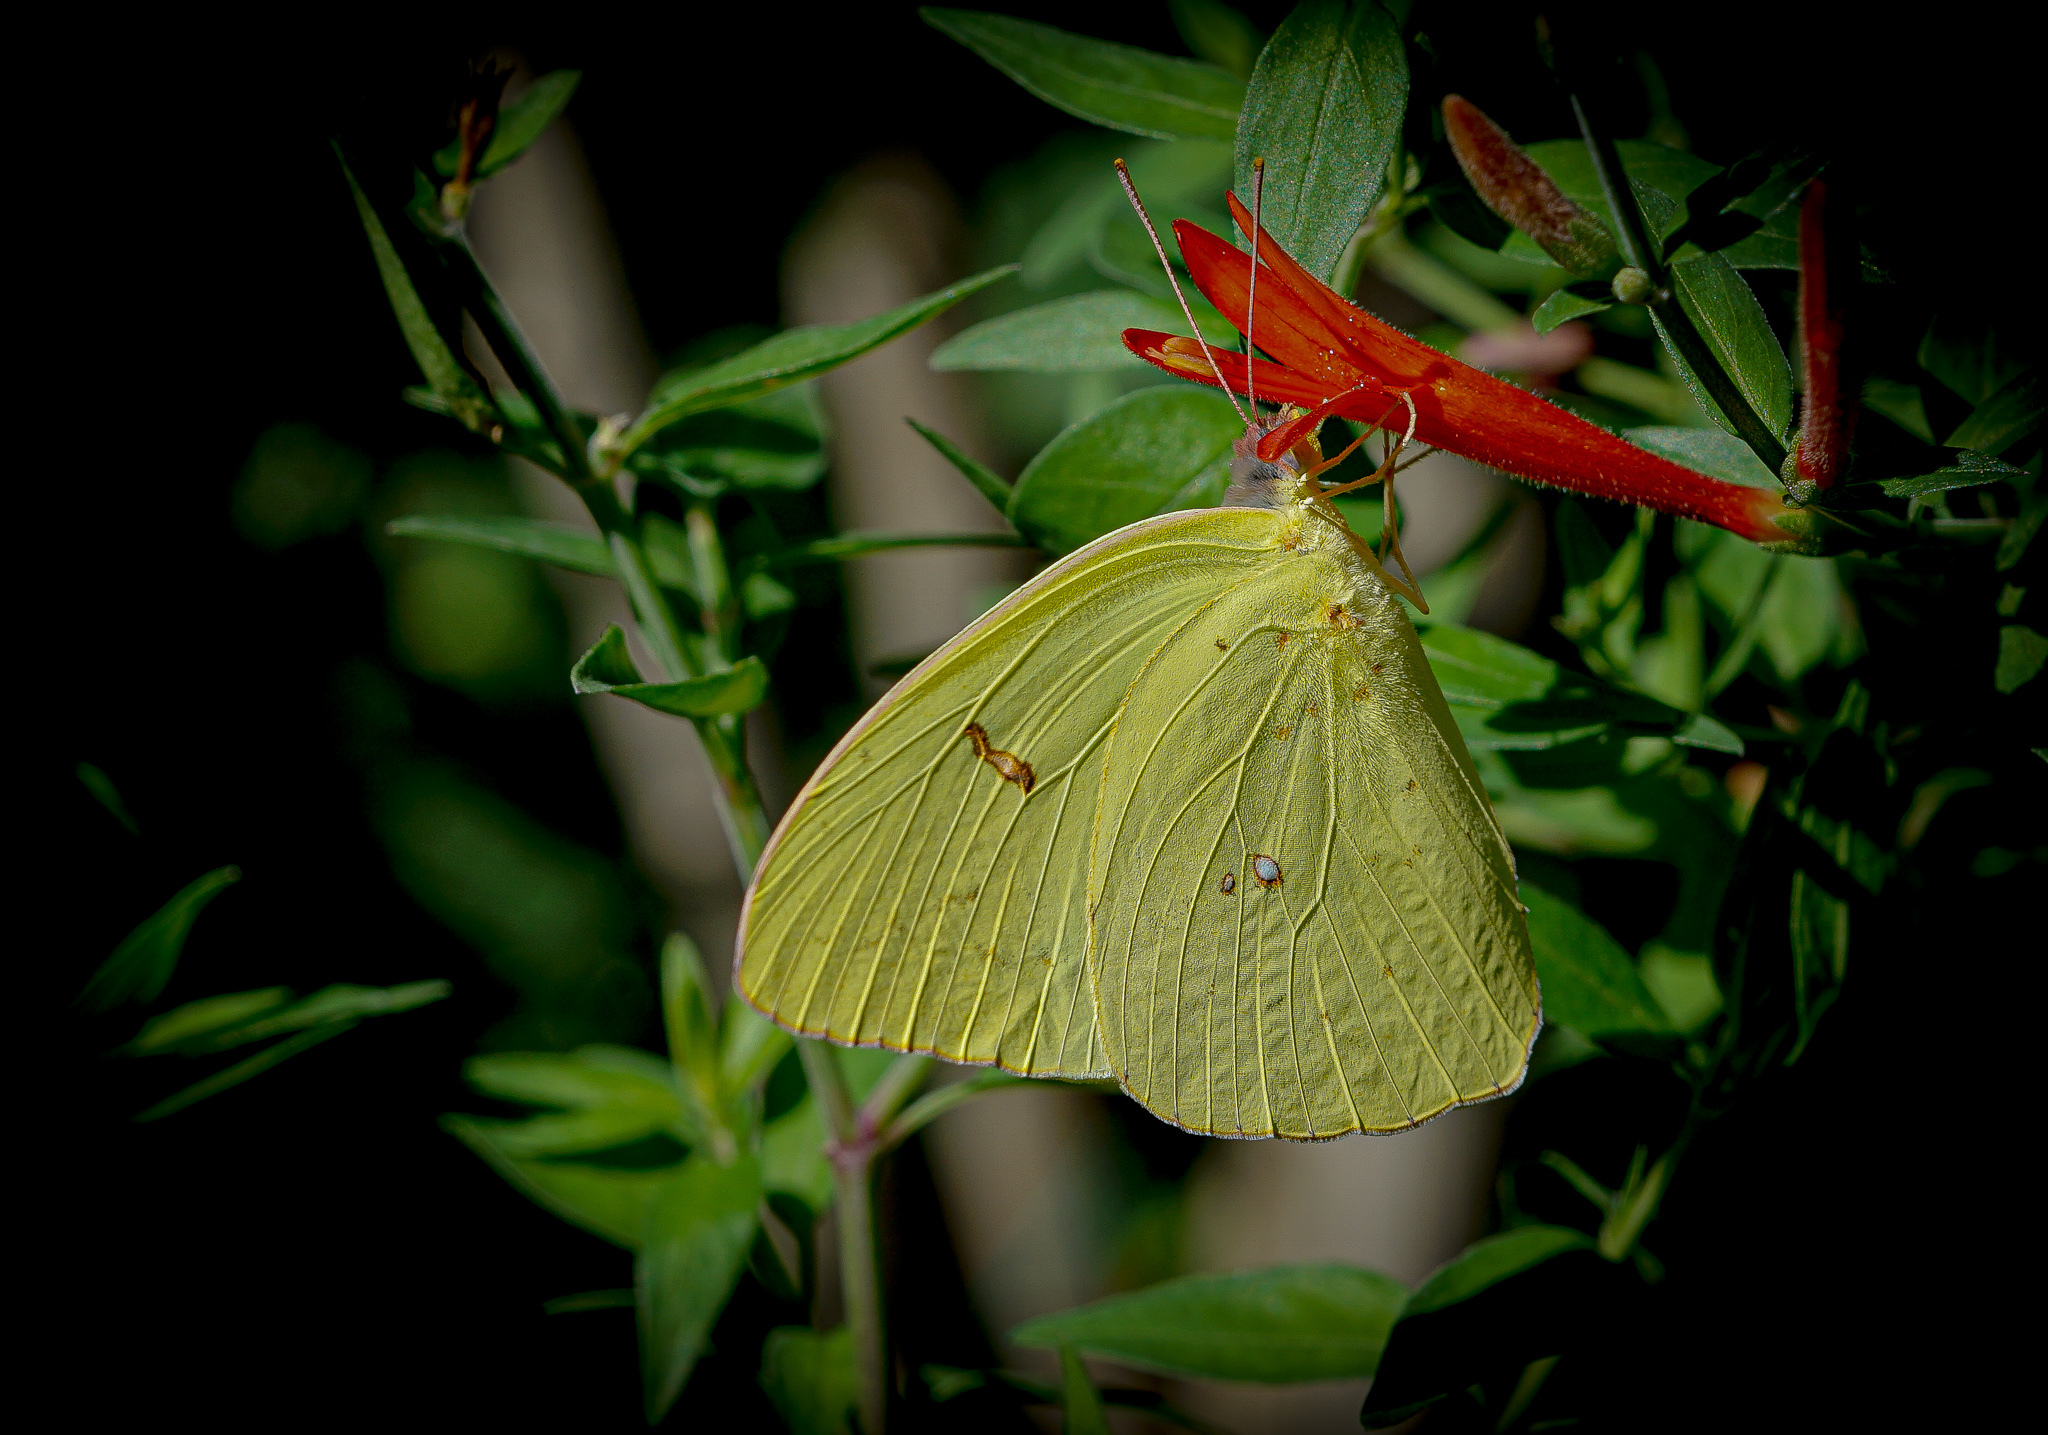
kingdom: Animalia
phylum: Arthropoda
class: Insecta
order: Lepidoptera
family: Pieridae
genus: Phoebis
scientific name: Phoebis sennae
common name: Cloudless sulphur
